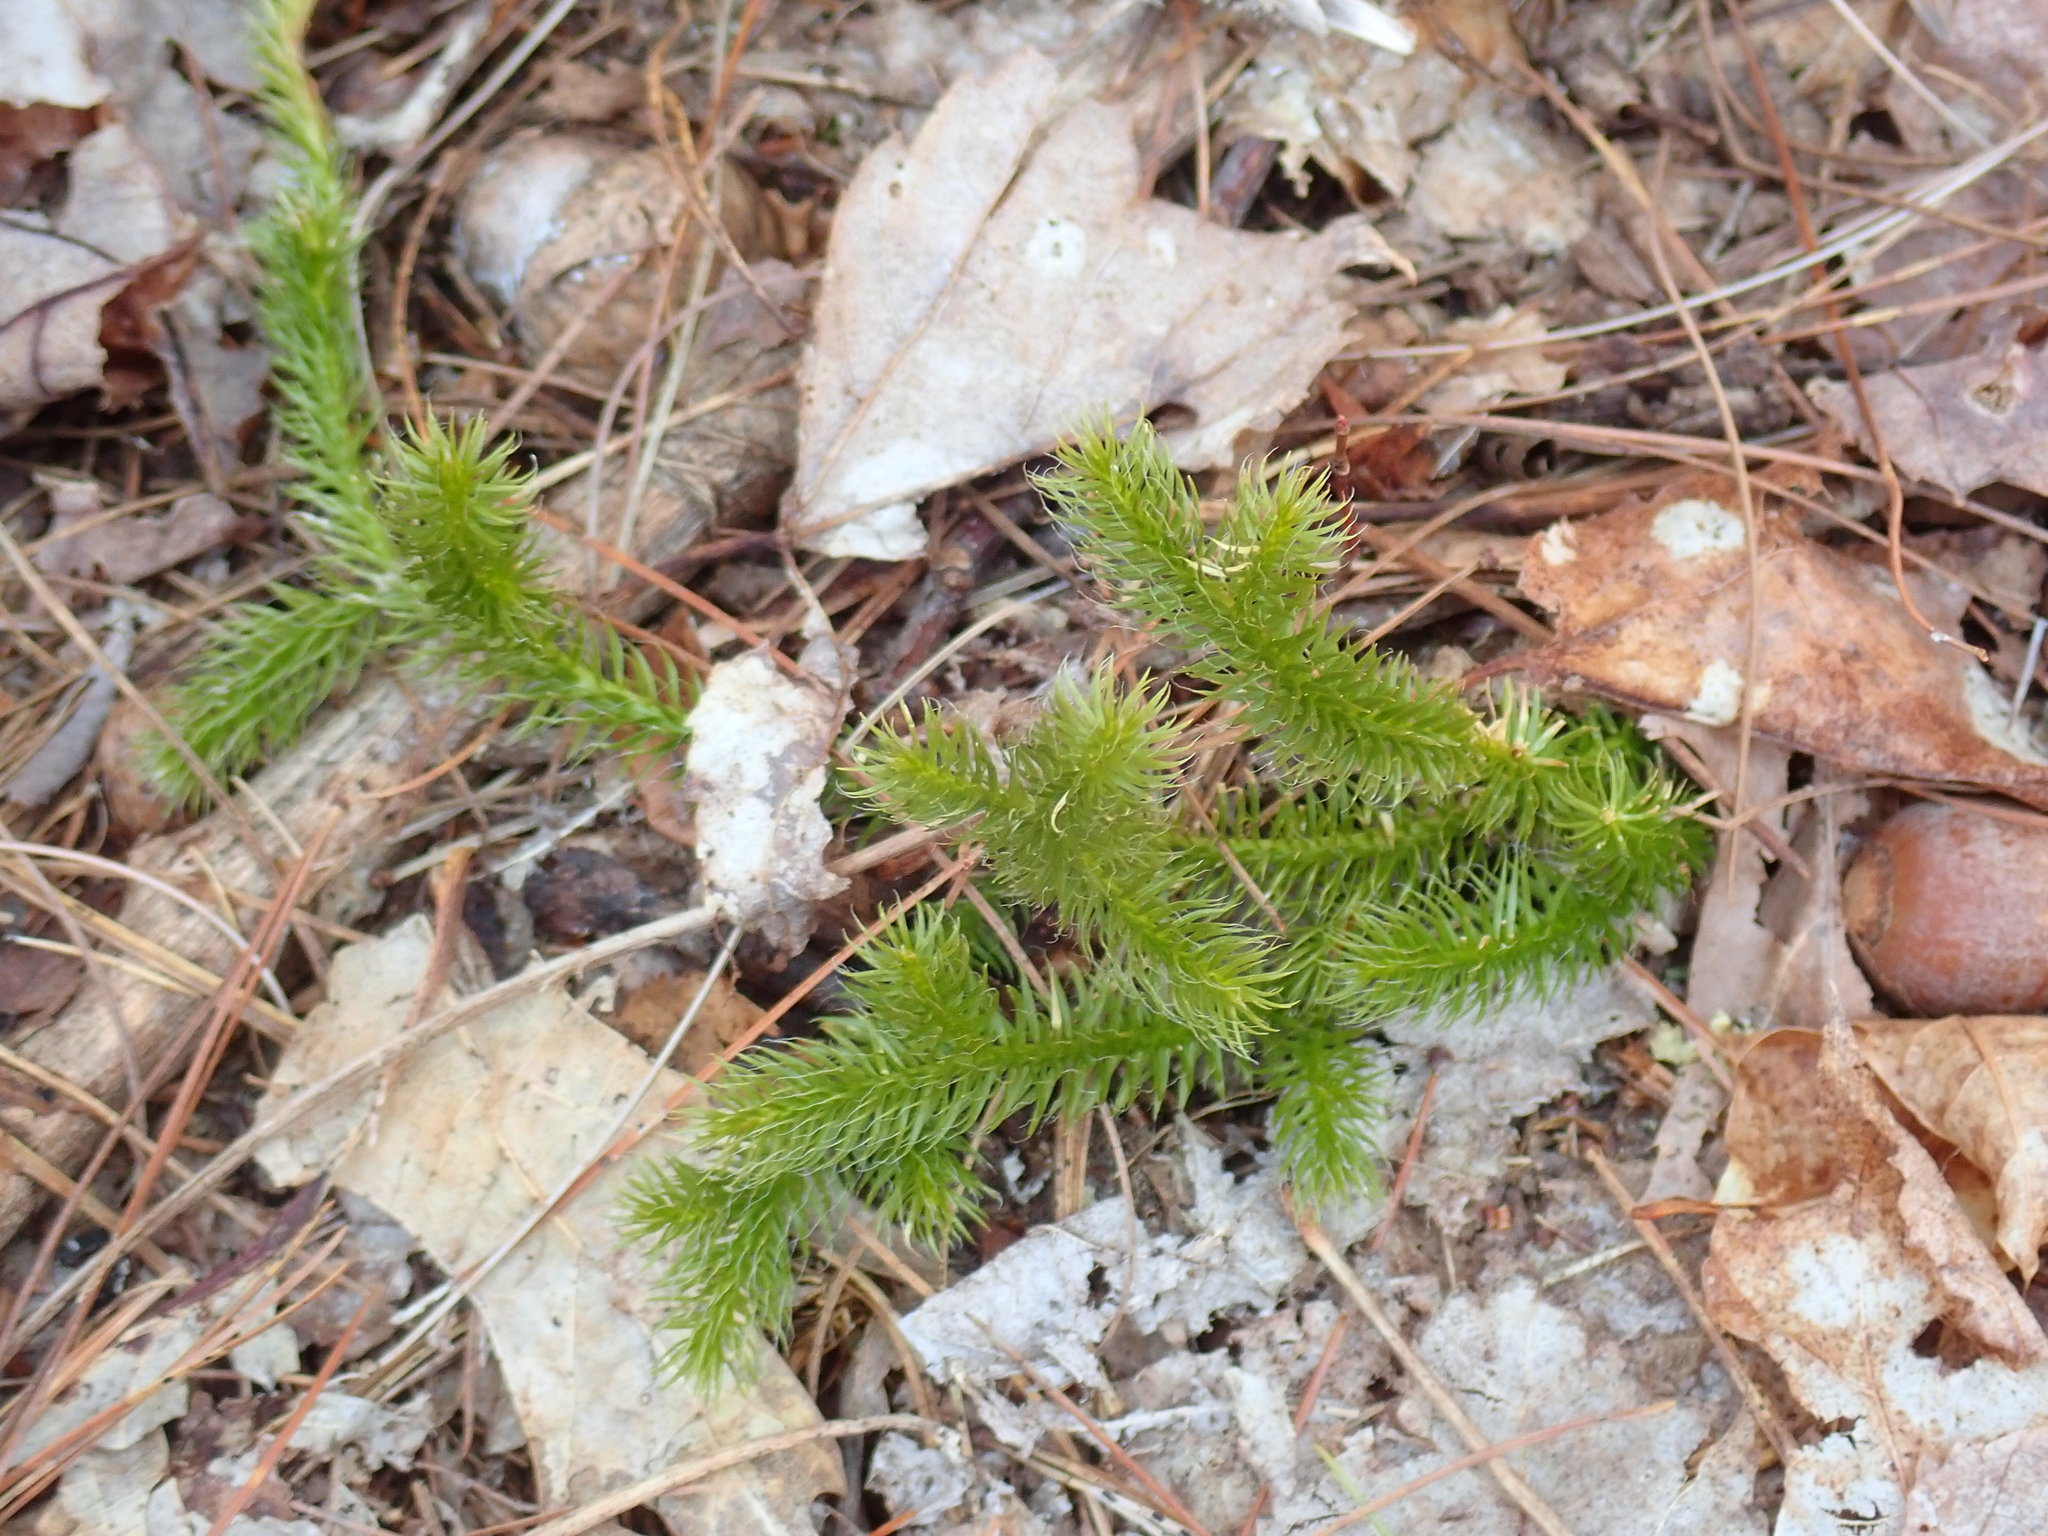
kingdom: Plantae
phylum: Tracheophyta
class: Lycopodiopsida
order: Lycopodiales
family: Lycopodiaceae
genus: Lycopodium
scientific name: Lycopodium clavatum
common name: Stag's-horn clubmoss
